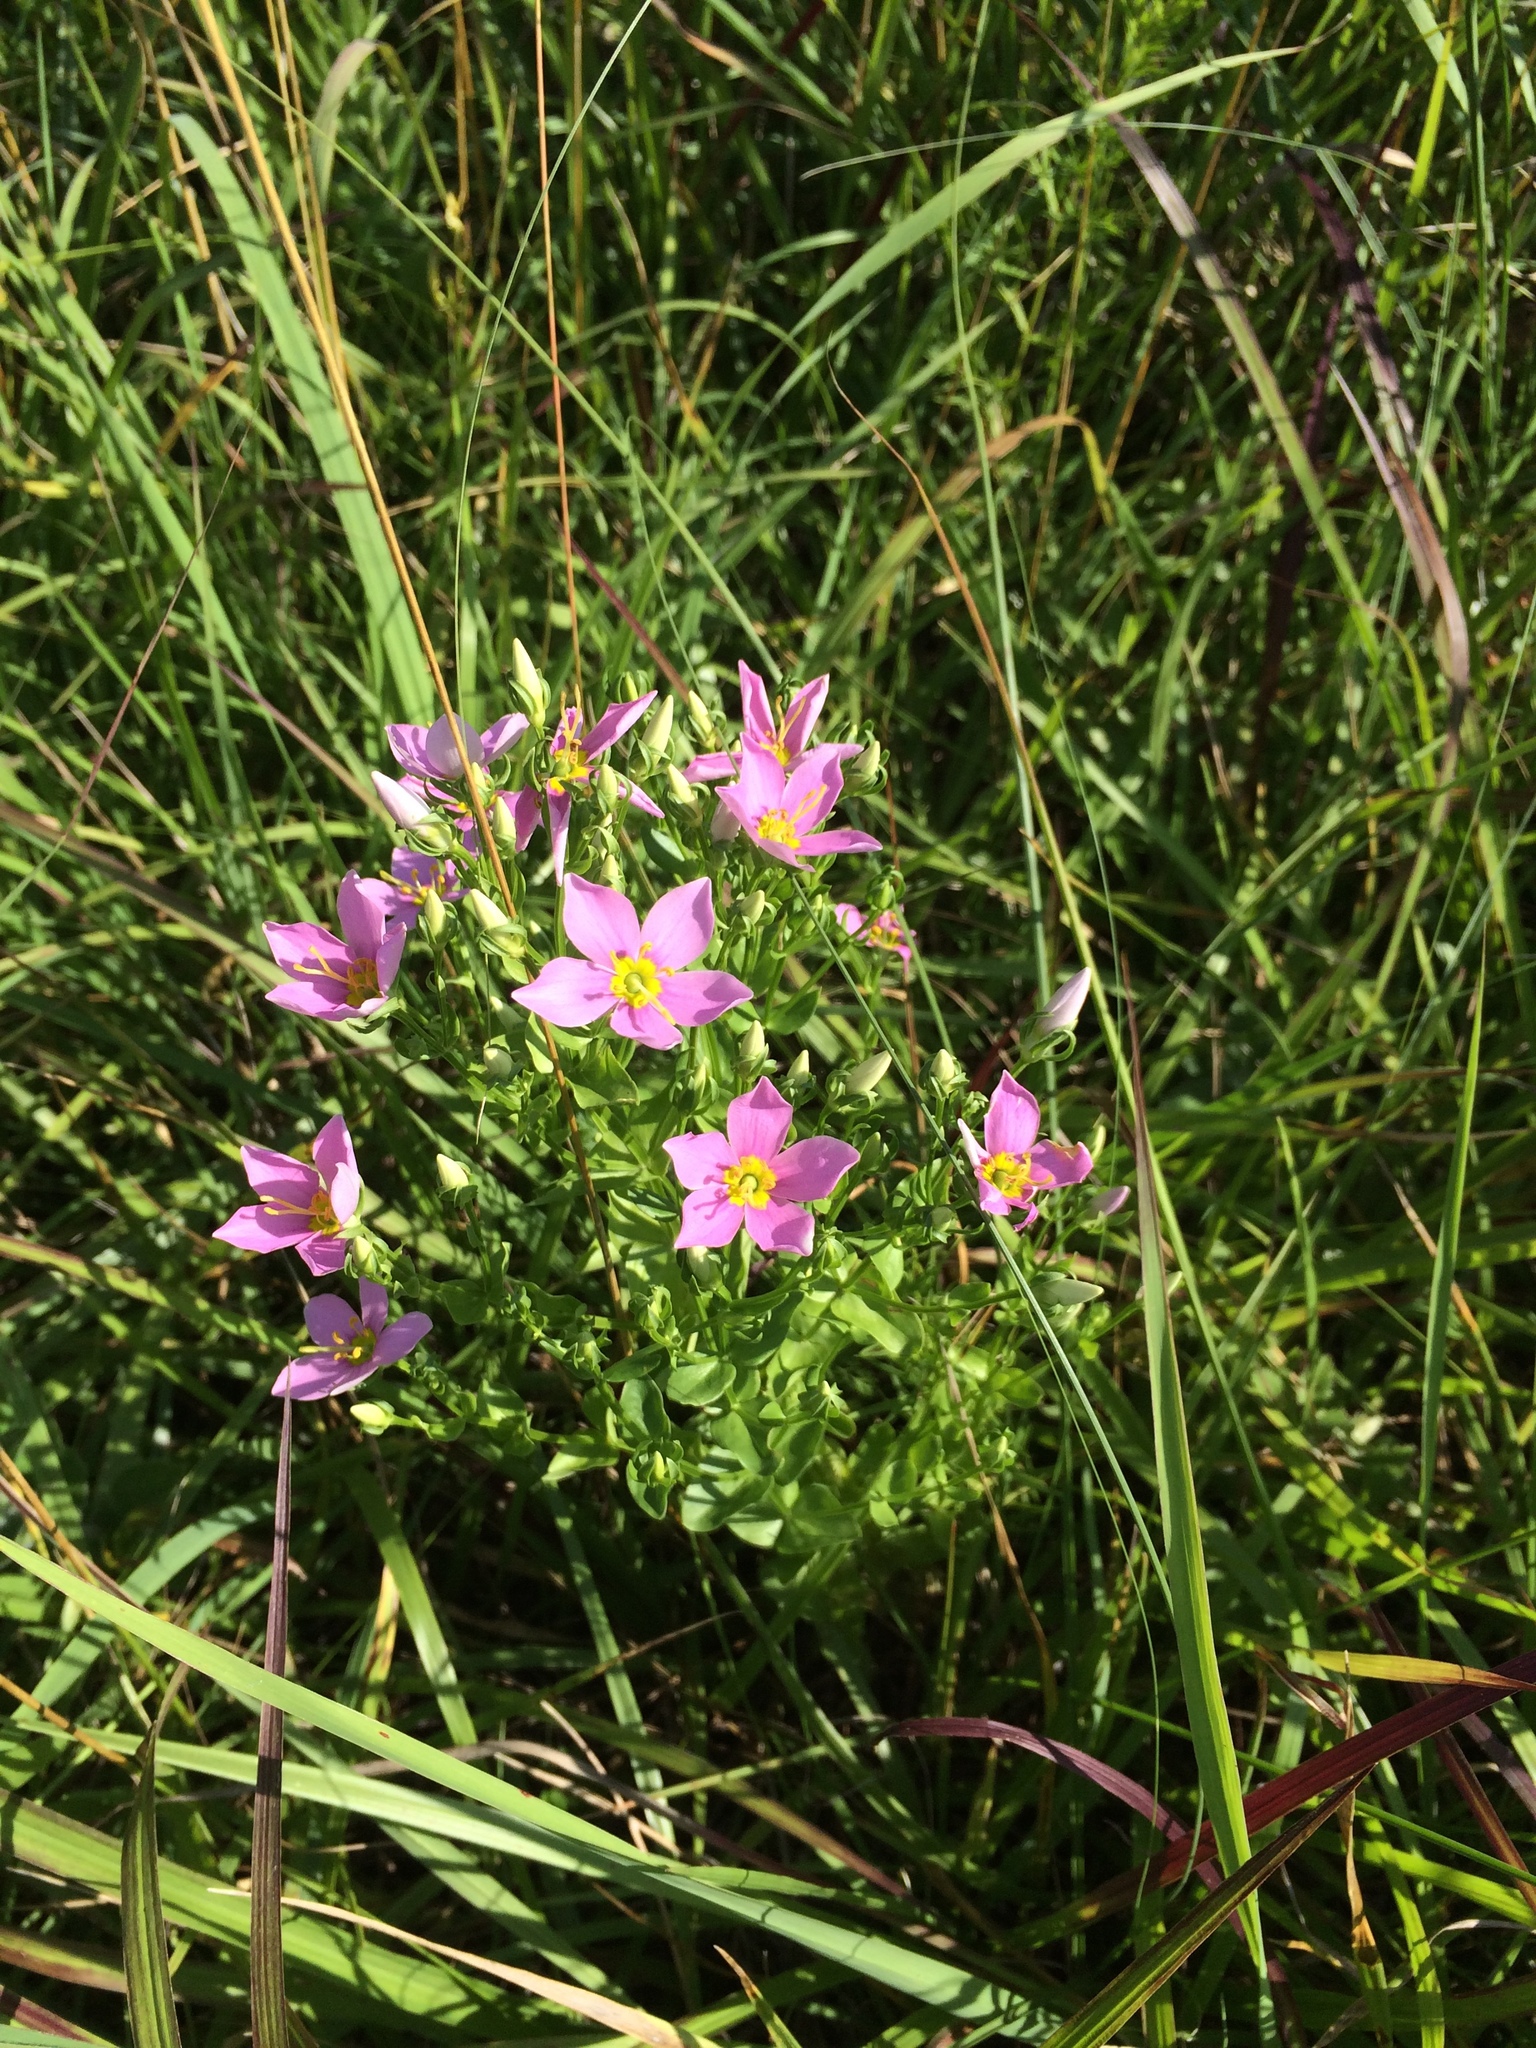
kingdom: Plantae
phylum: Tracheophyta
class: Magnoliopsida
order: Gentianales
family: Gentianaceae
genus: Sabatia
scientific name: Sabatia angularis
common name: Rose-pink
